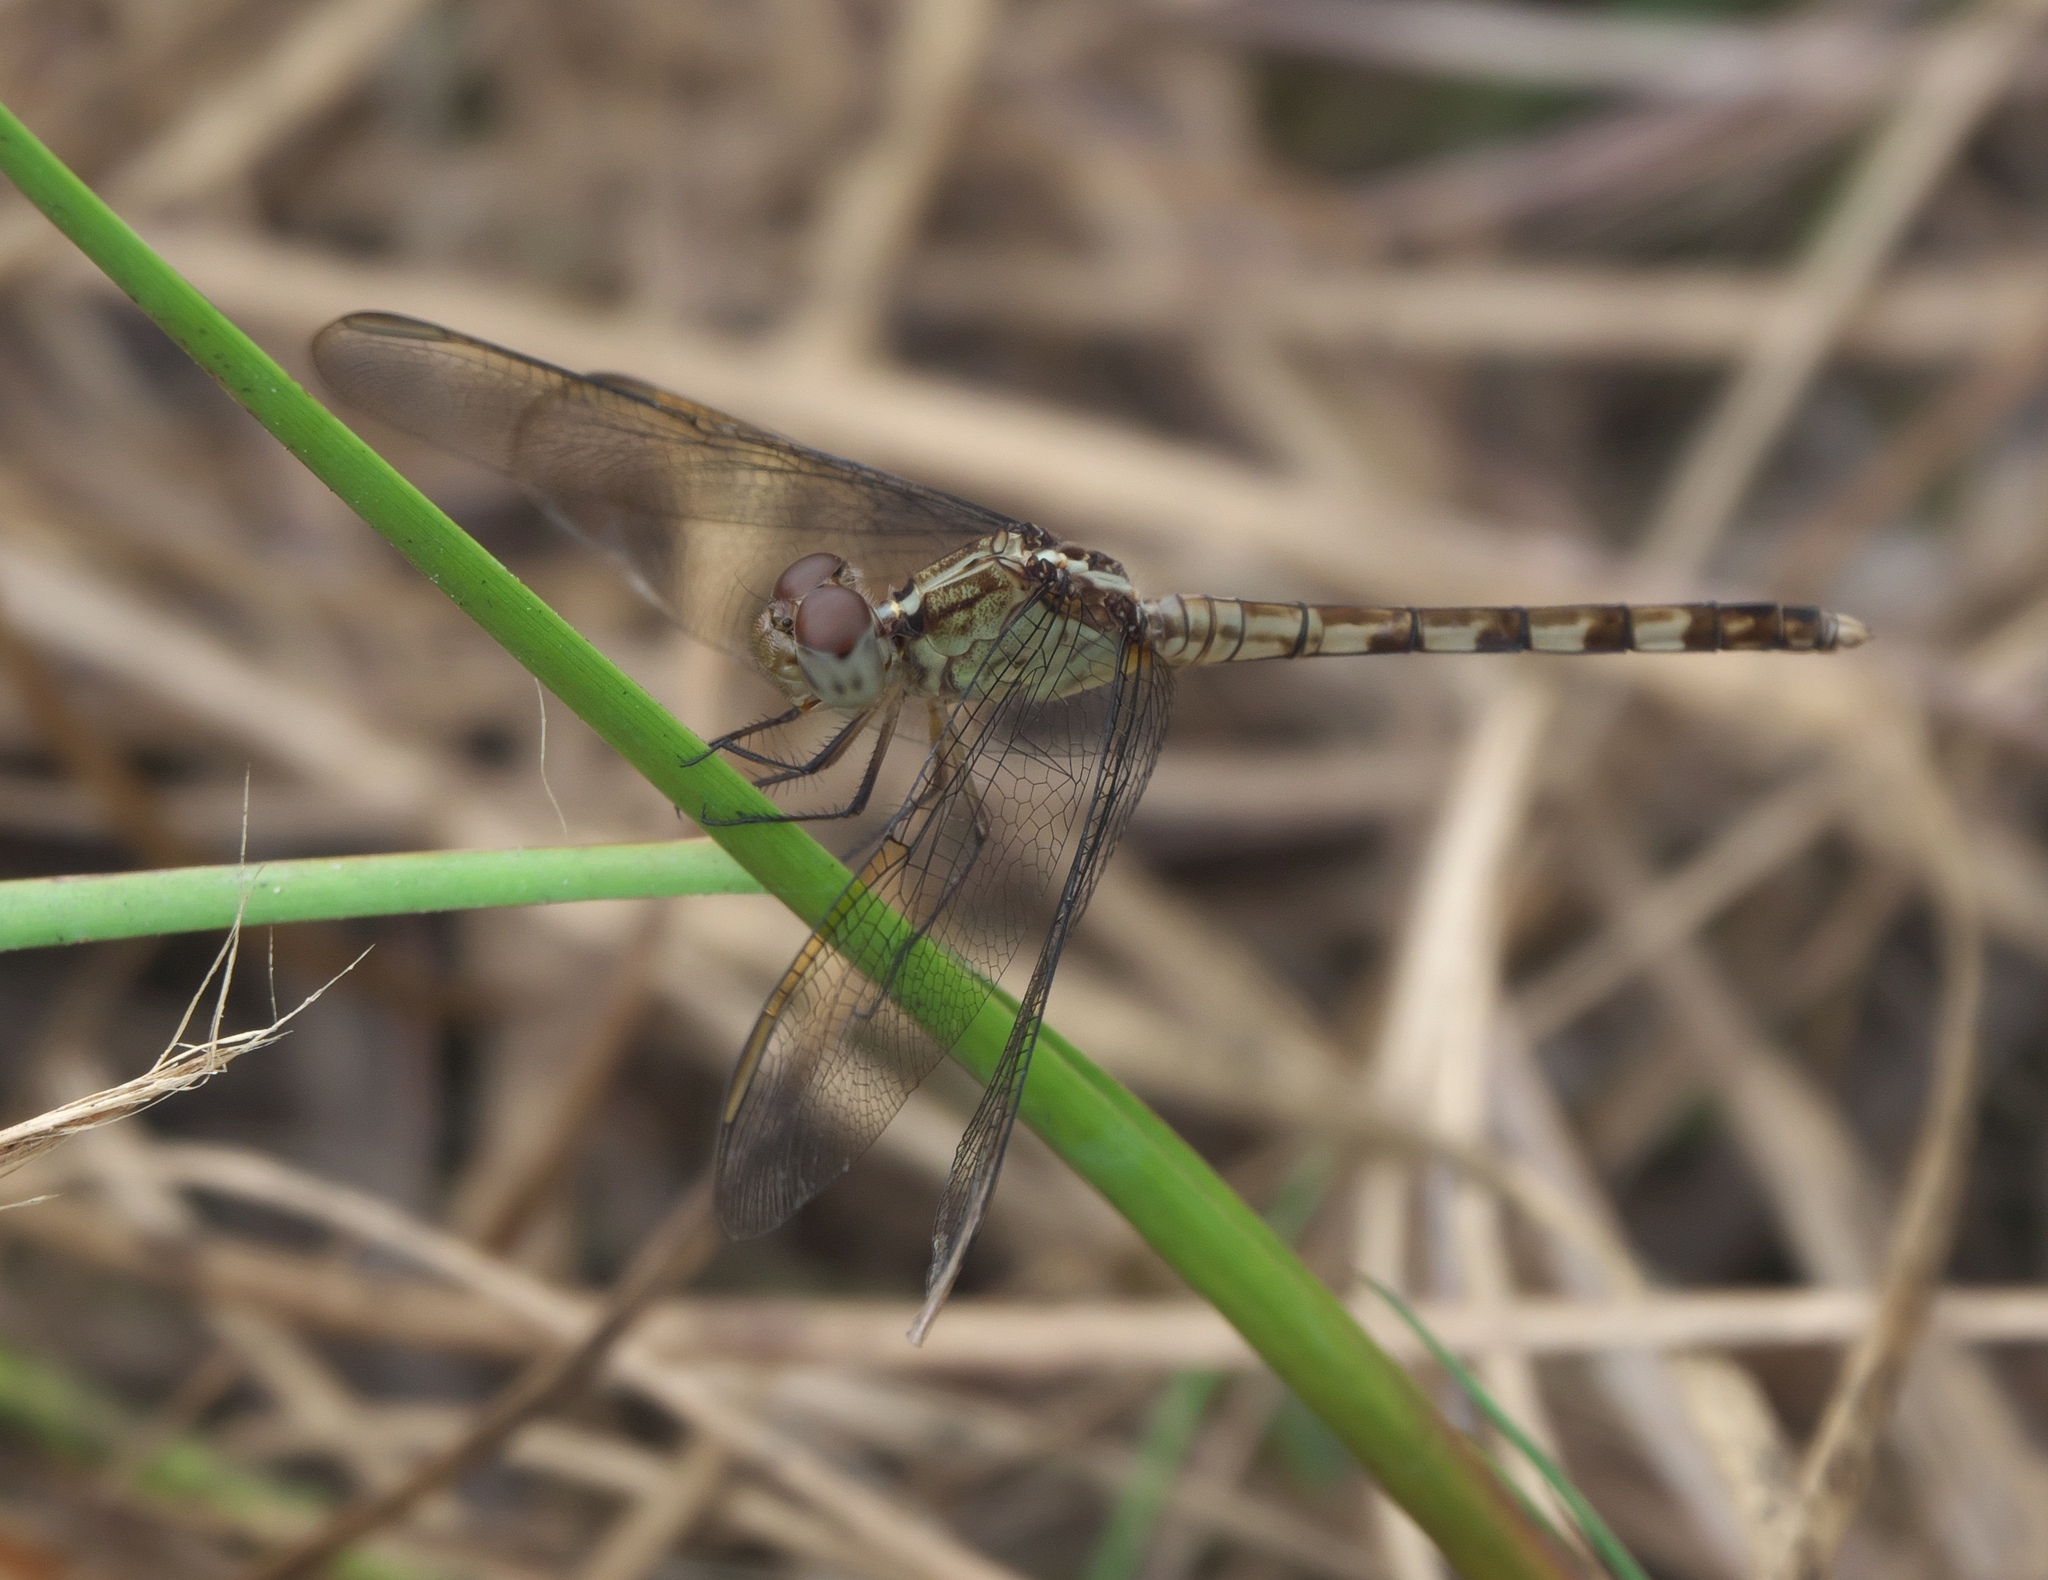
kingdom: Animalia
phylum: Arthropoda
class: Insecta
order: Odonata
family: Libellulidae
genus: Erythrodiplax
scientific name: Erythrodiplax umbrata
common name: Band-winged dragonlet
